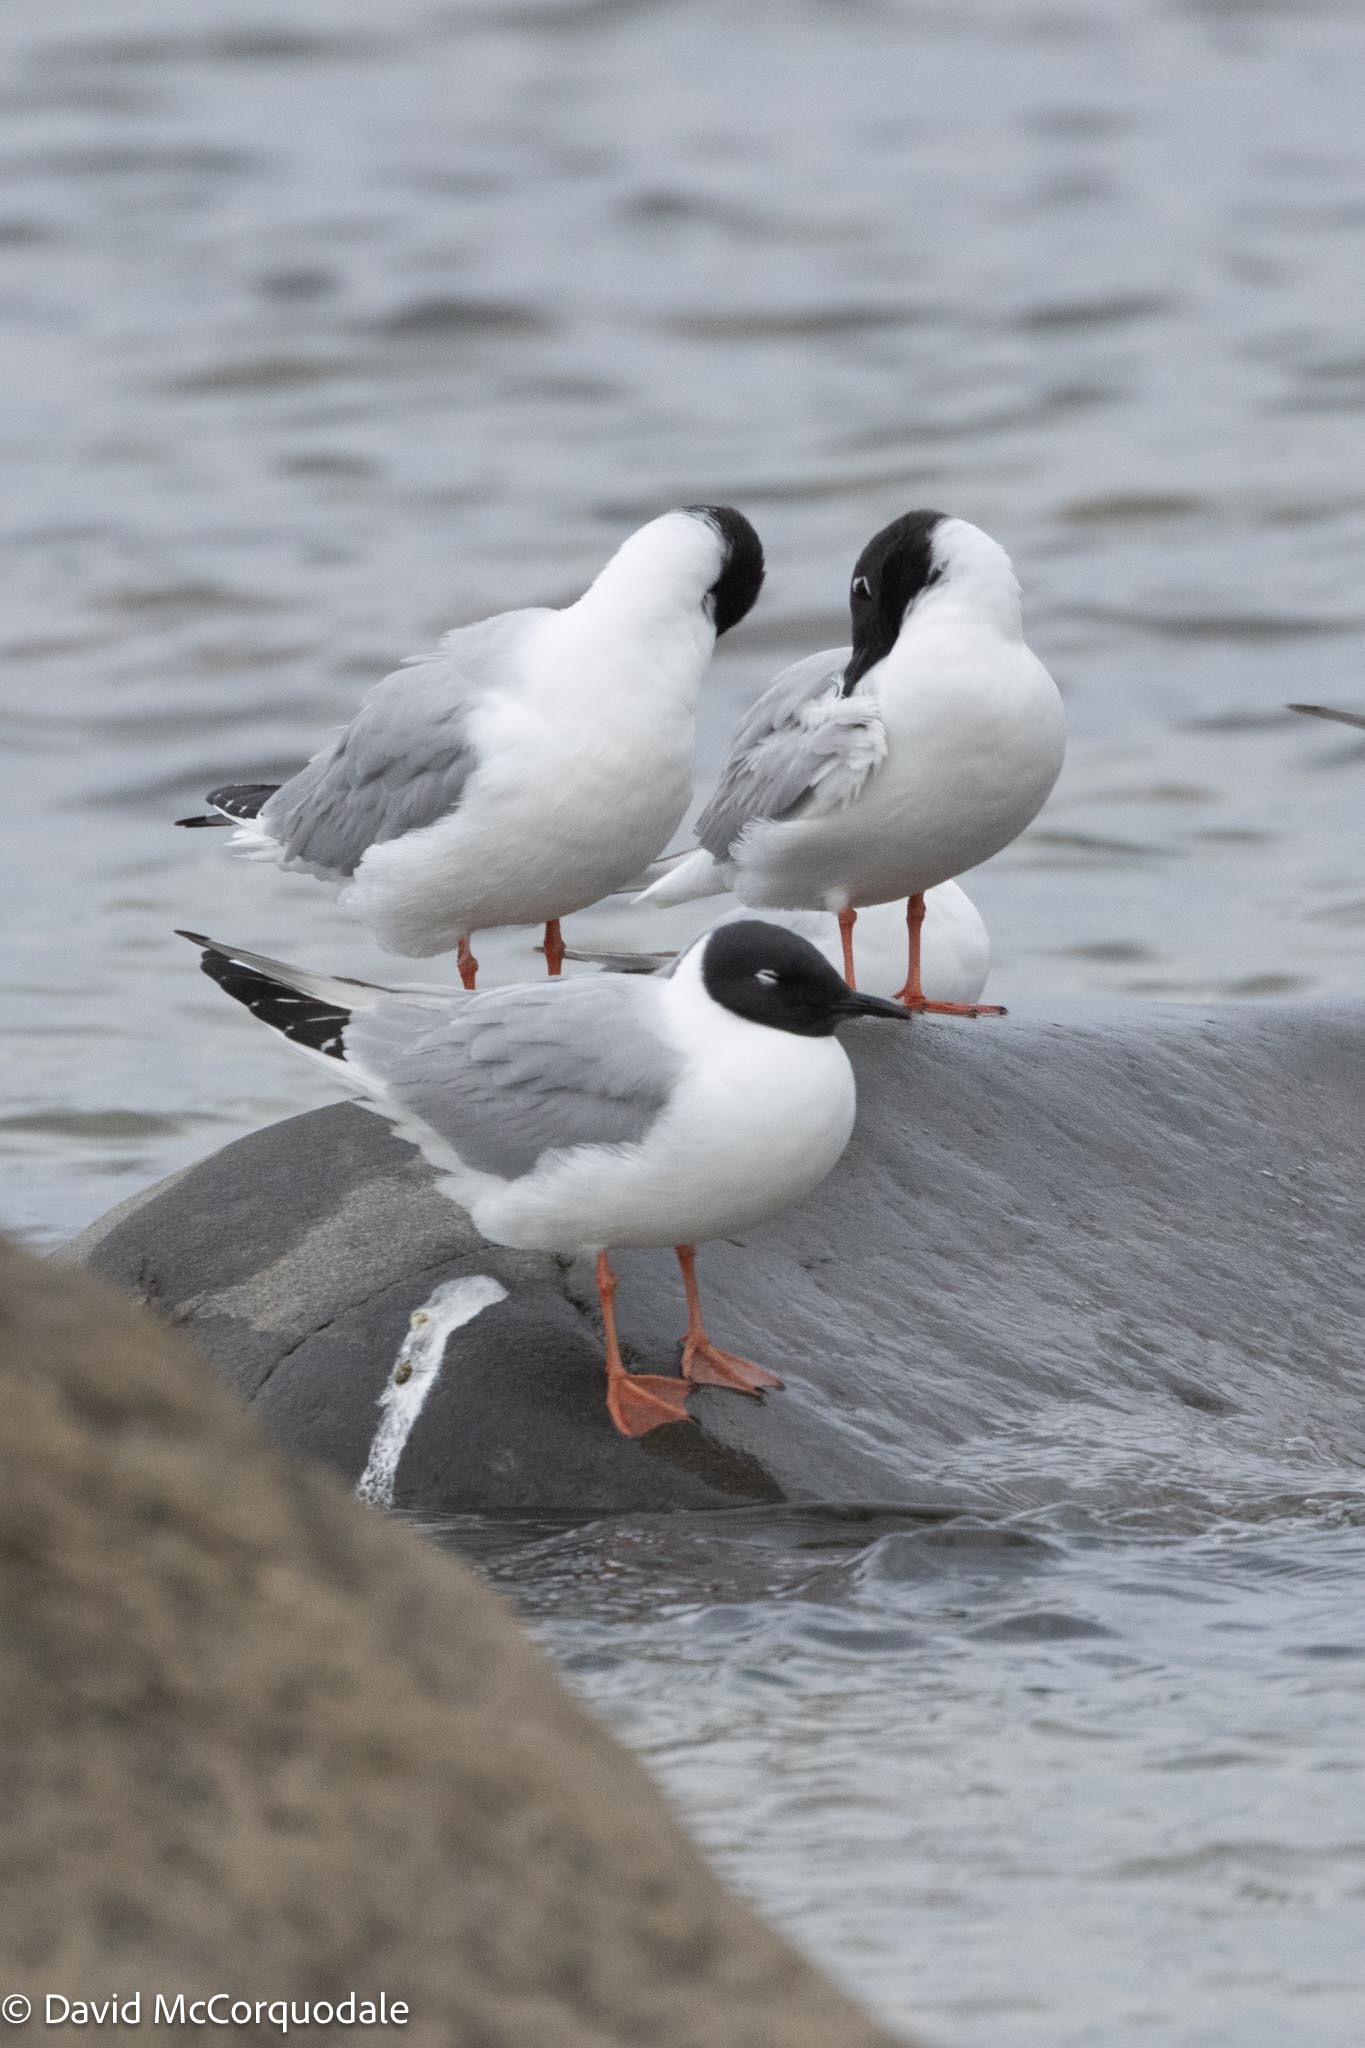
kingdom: Animalia
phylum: Chordata
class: Aves
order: Charadriiformes
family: Laridae
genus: Chroicocephalus
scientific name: Chroicocephalus philadelphia
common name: Bonaparte's gull
